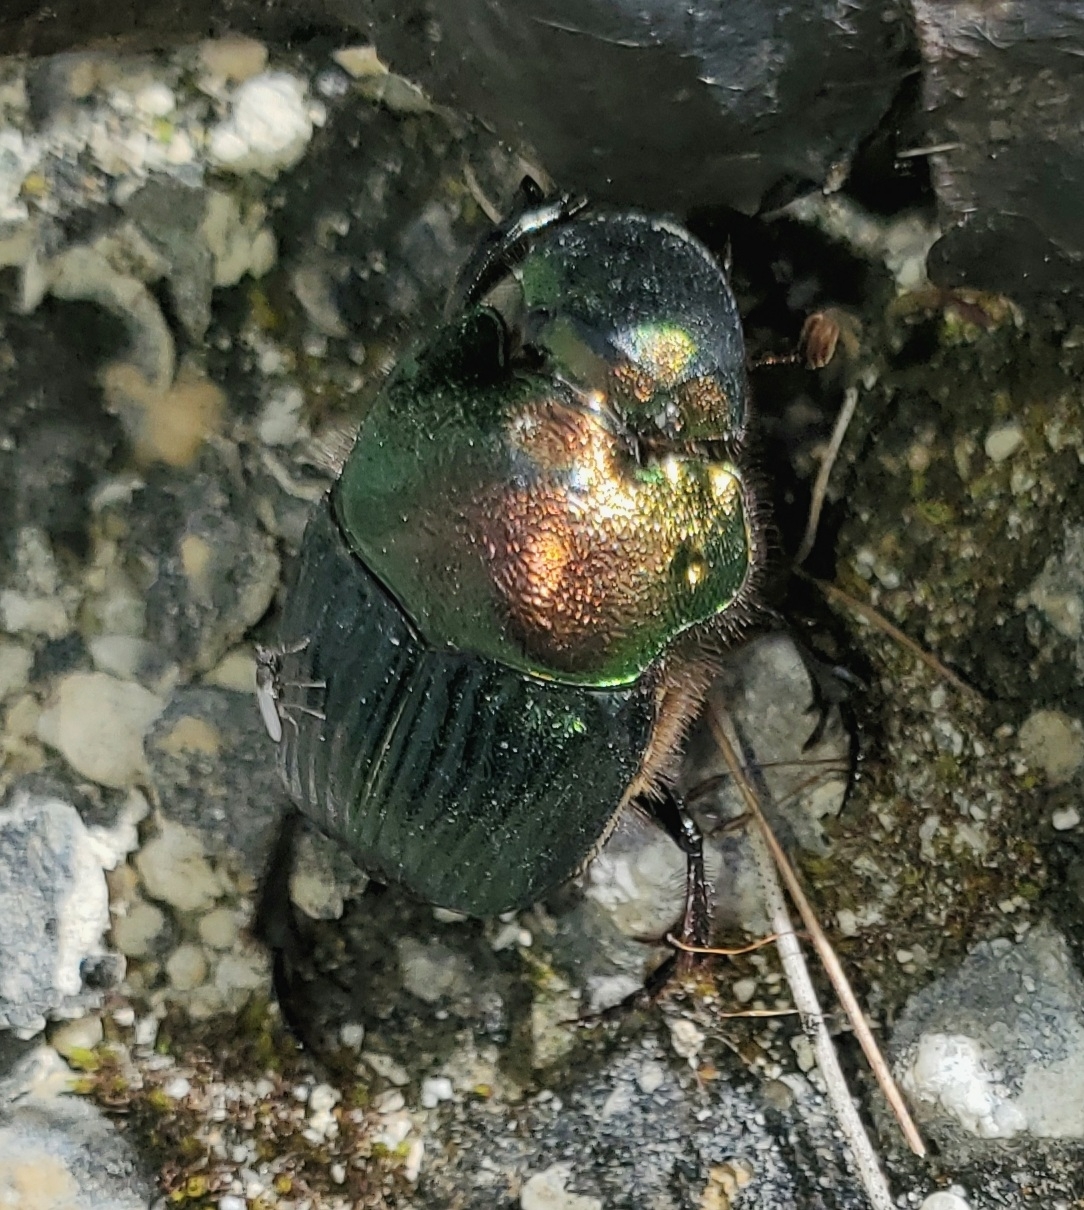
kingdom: Animalia
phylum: Arthropoda
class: Insecta
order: Coleoptera
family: Scarabaeidae
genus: Phanaeus
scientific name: Phanaeus igneus
